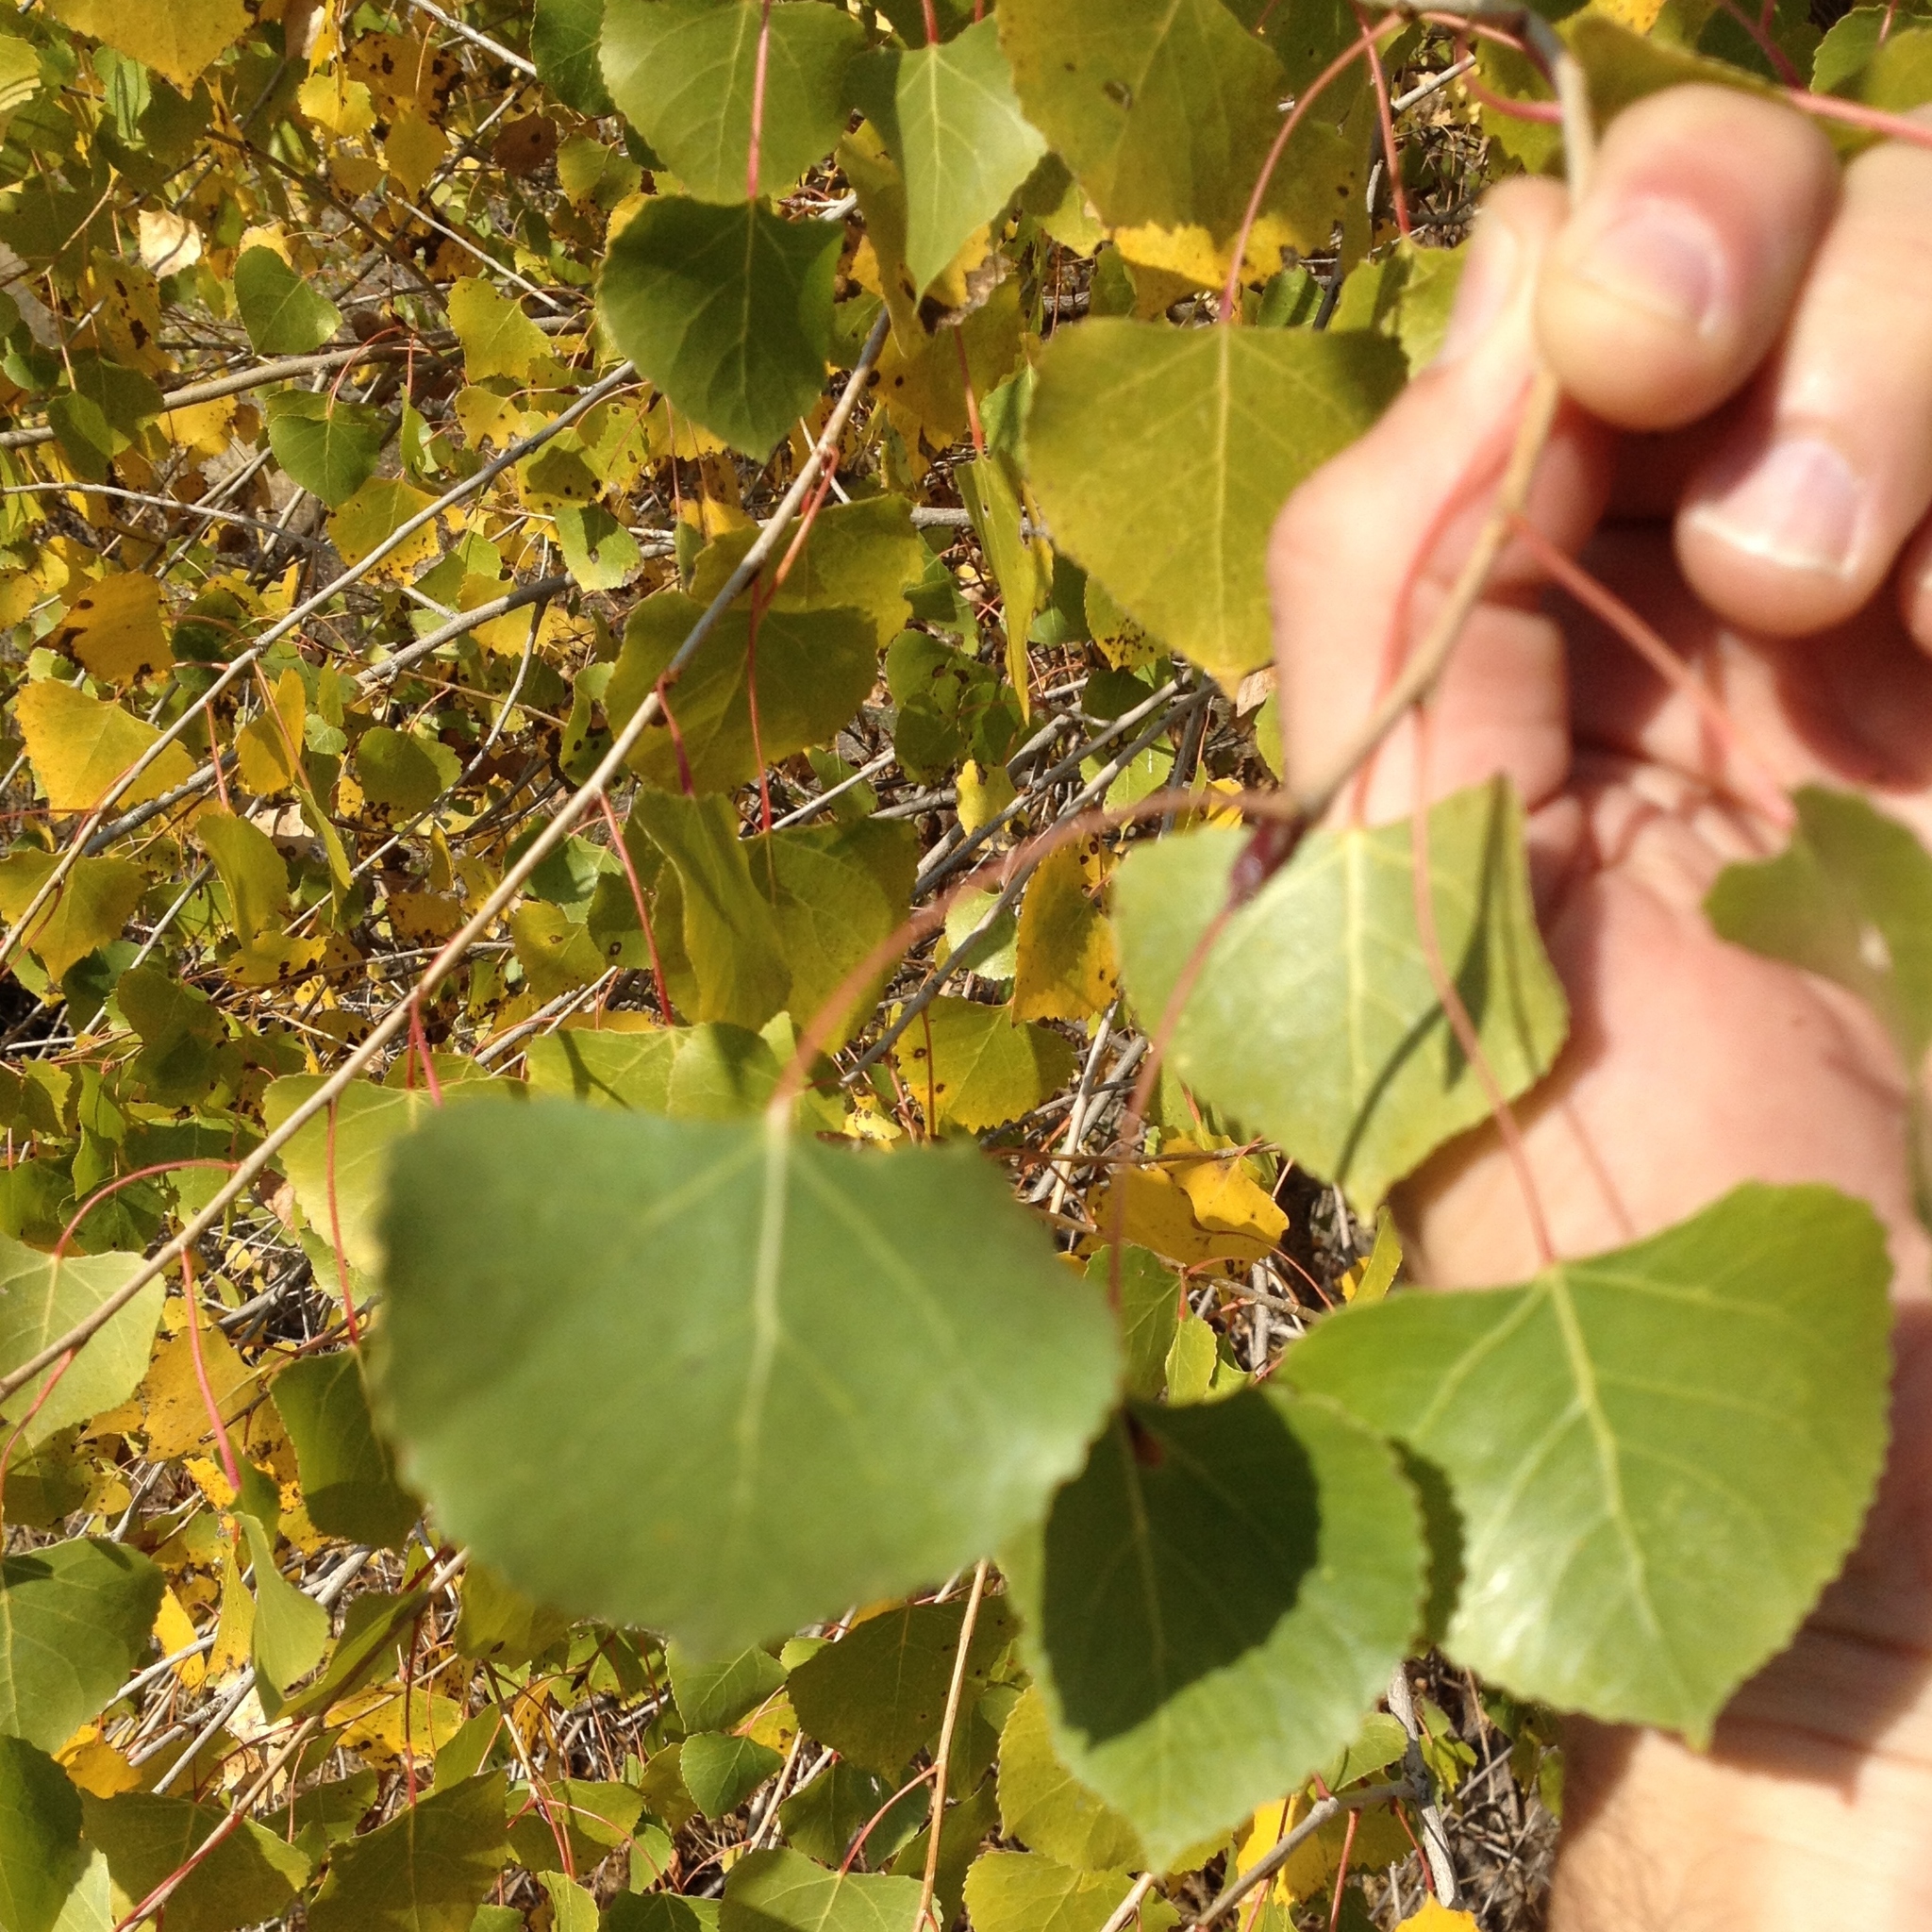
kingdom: Plantae
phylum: Tracheophyta
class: Magnoliopsida
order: Malpighiales
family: Salicaceae
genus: Populus
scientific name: Populus fremontii
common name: Fremont's cottonwood
